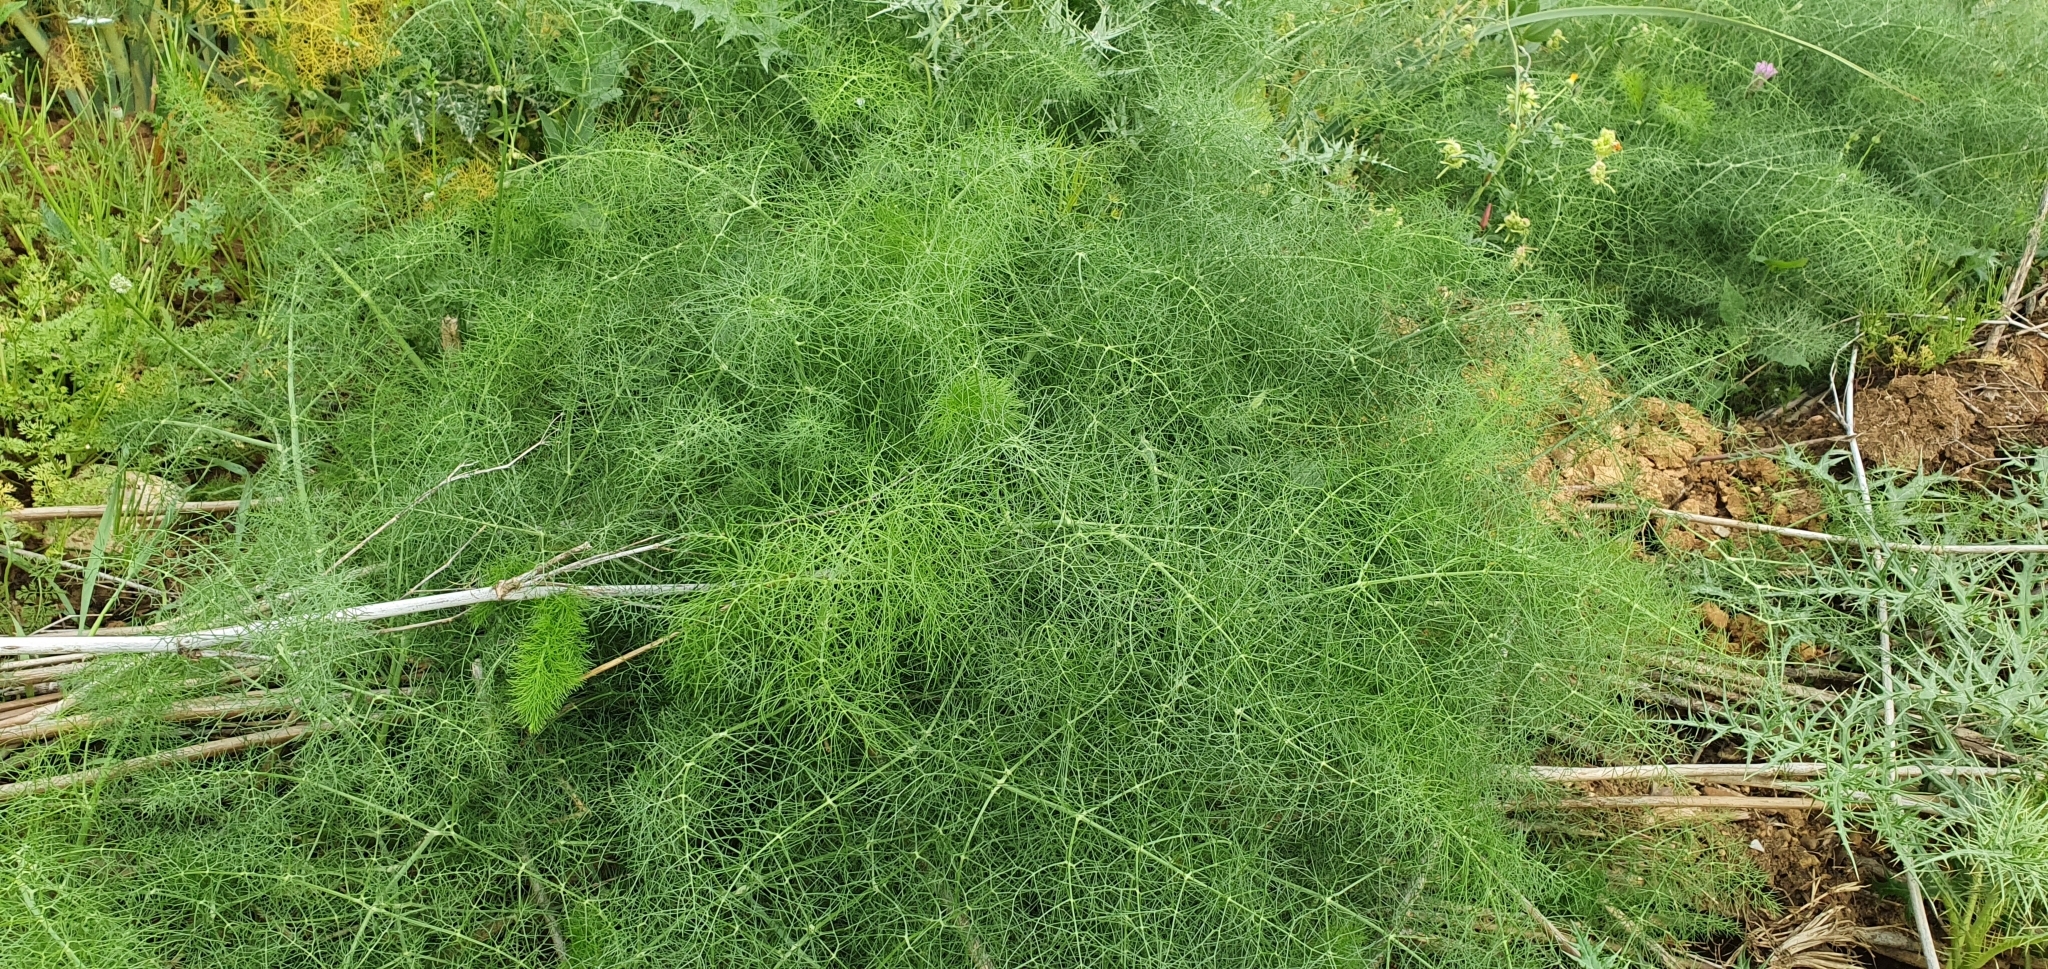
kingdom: Plantae
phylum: Tracheophyta
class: Magnoliopsida
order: Apiales
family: Apiaceae
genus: Foeniculum
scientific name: Foeniculum vulgare
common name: Fennel
